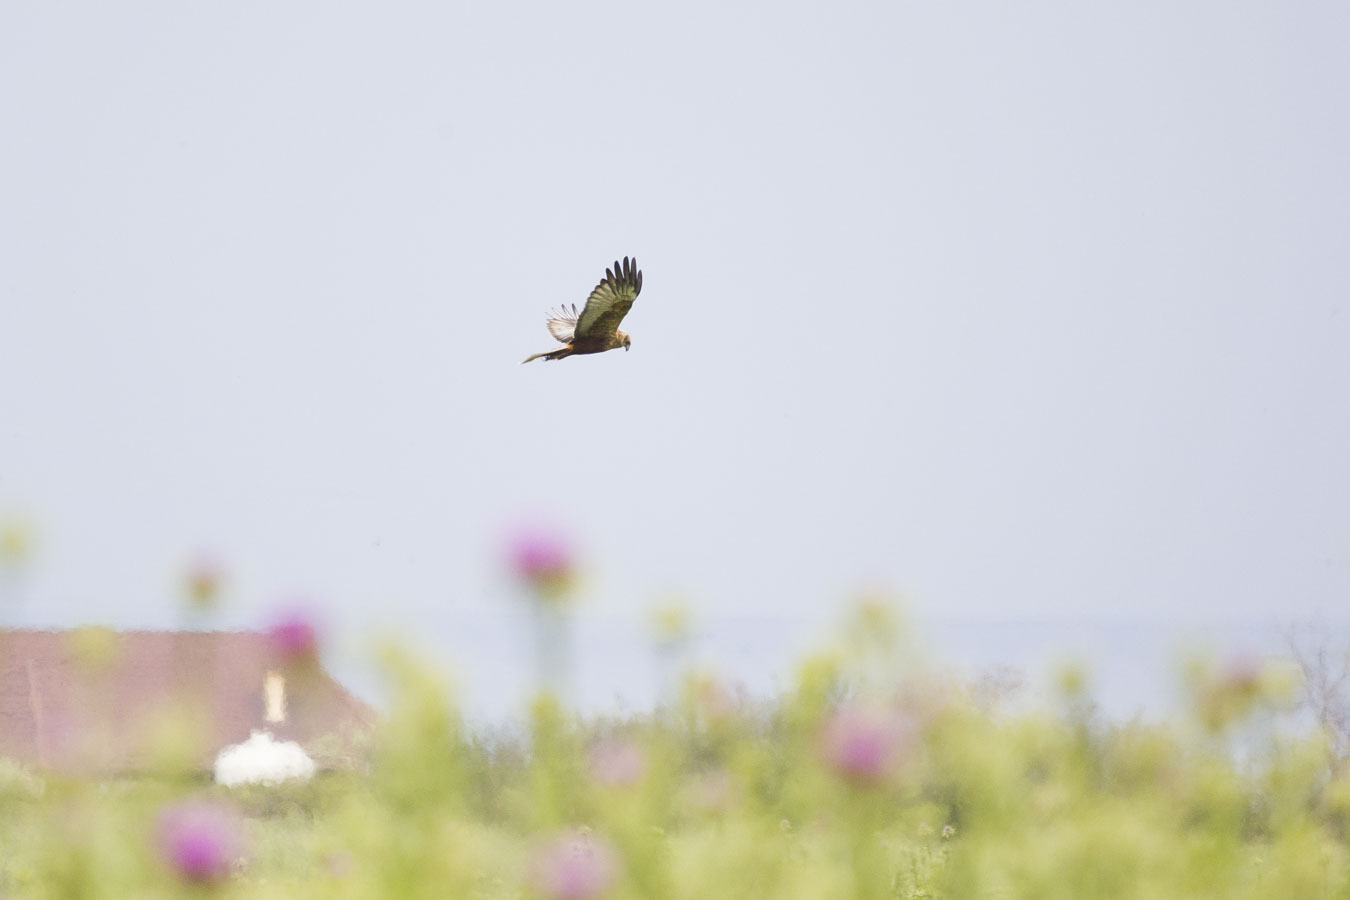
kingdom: Animalia
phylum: Chordata
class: Aves
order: Accipitriformes
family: Accipitridae
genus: Circus
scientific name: Circus aeruginosus
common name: Western marsh harrier
